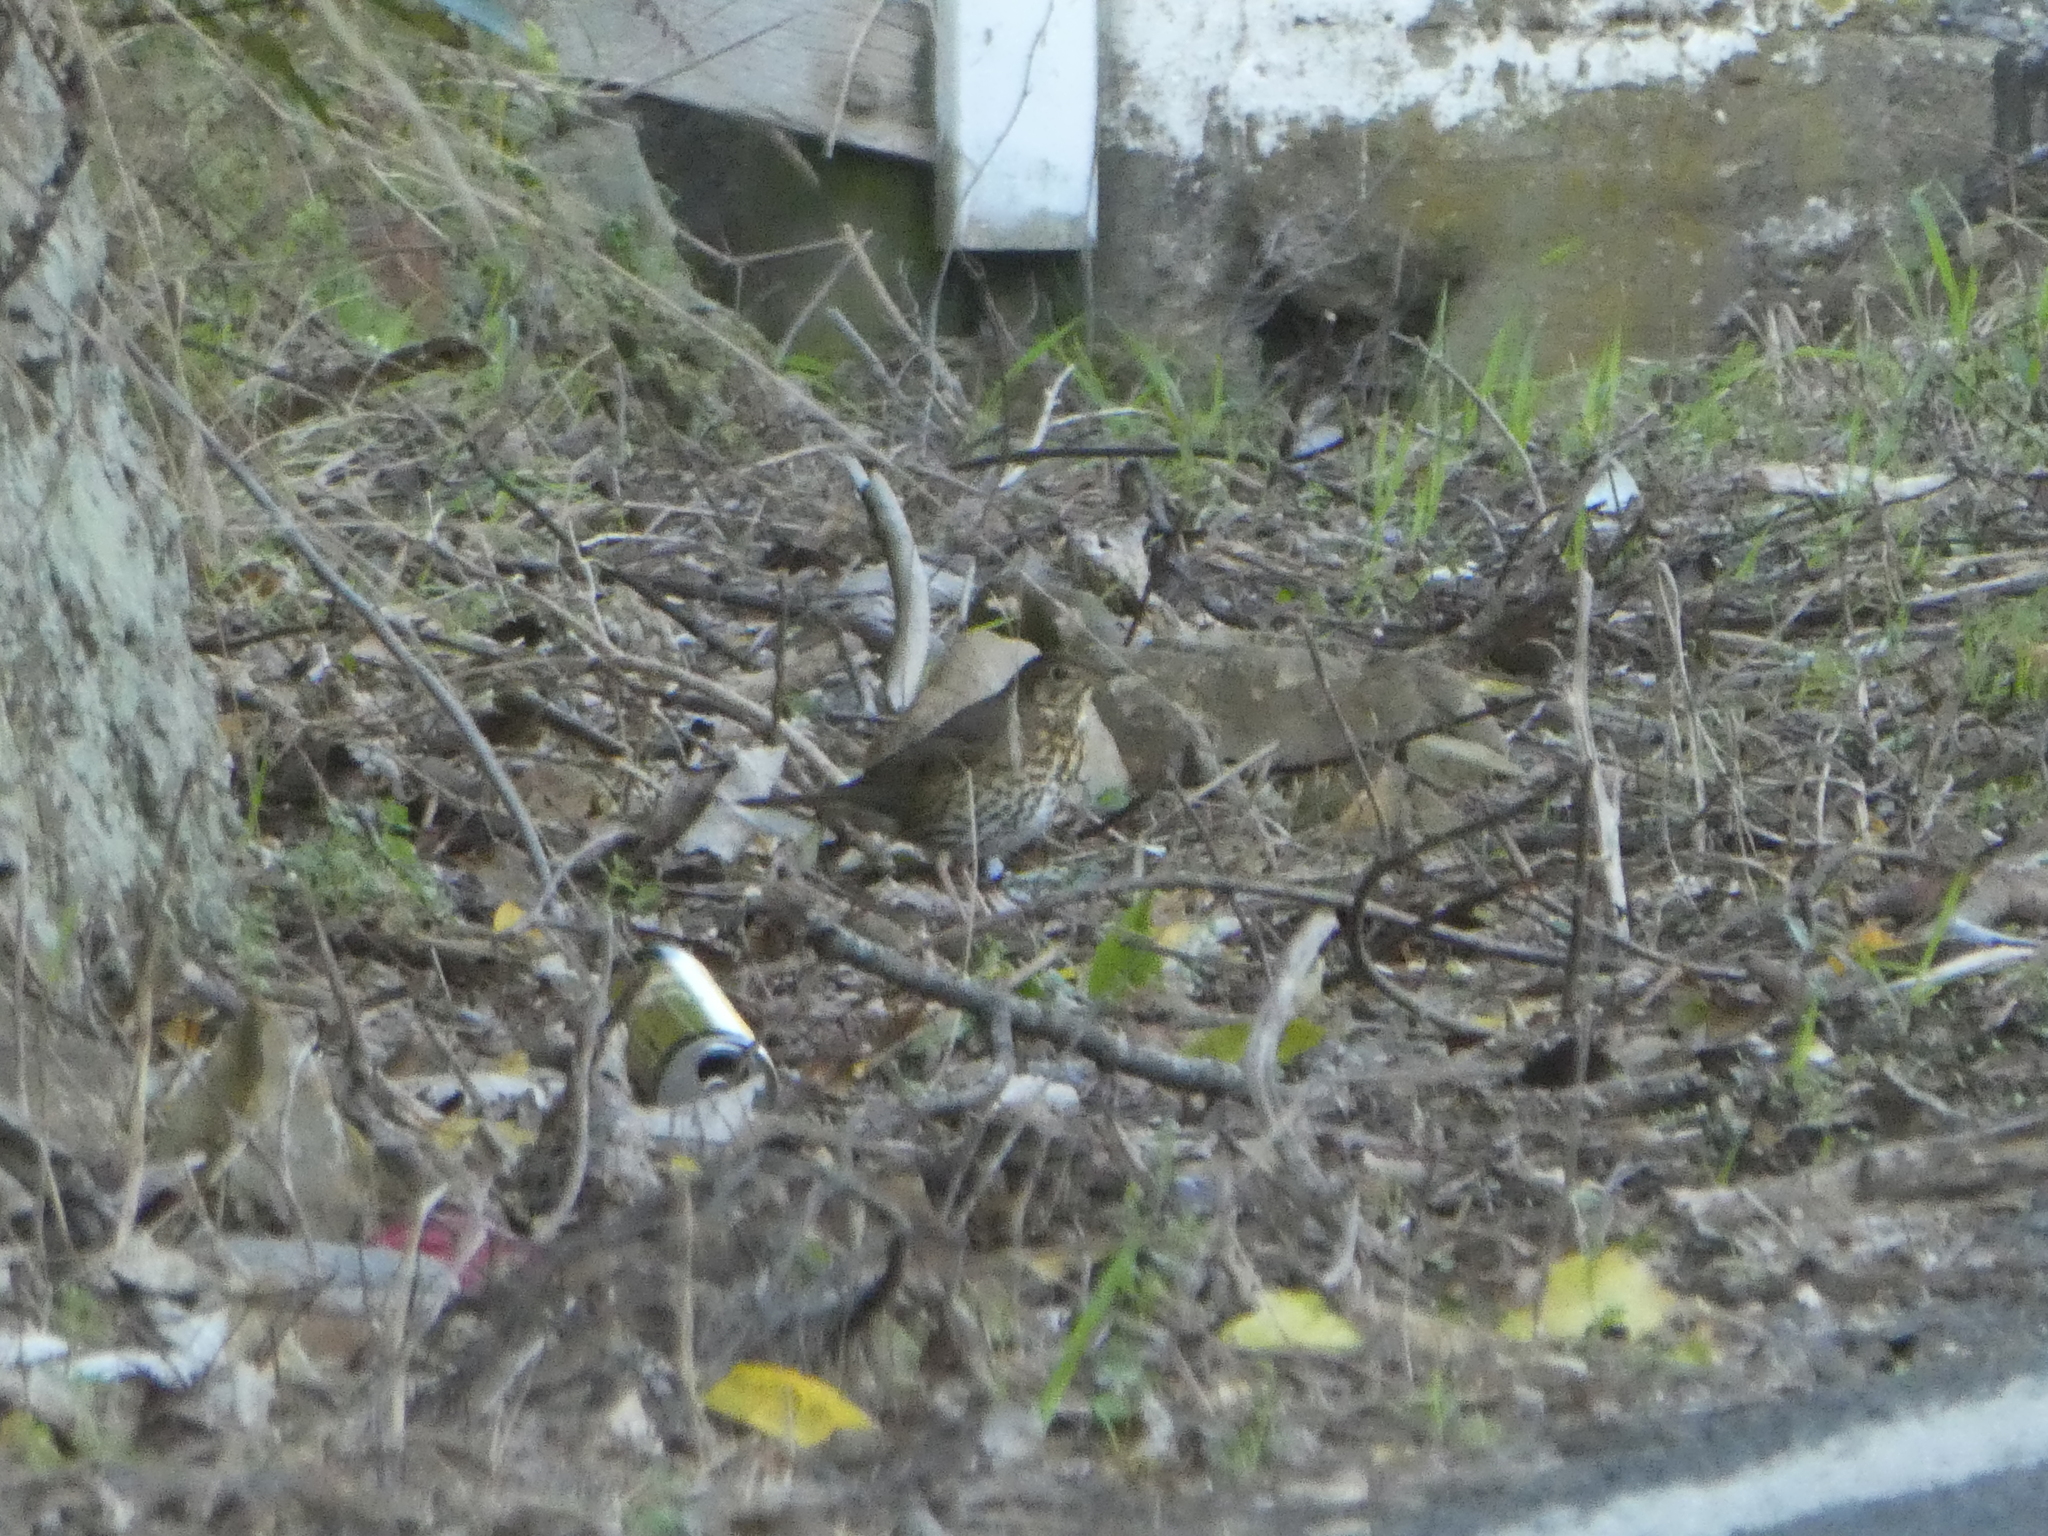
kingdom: Animalia
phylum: Chordata
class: Aves
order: Passeriformes
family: Turdidae
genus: Turdus
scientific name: Turdus philomelos
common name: Song thrush
